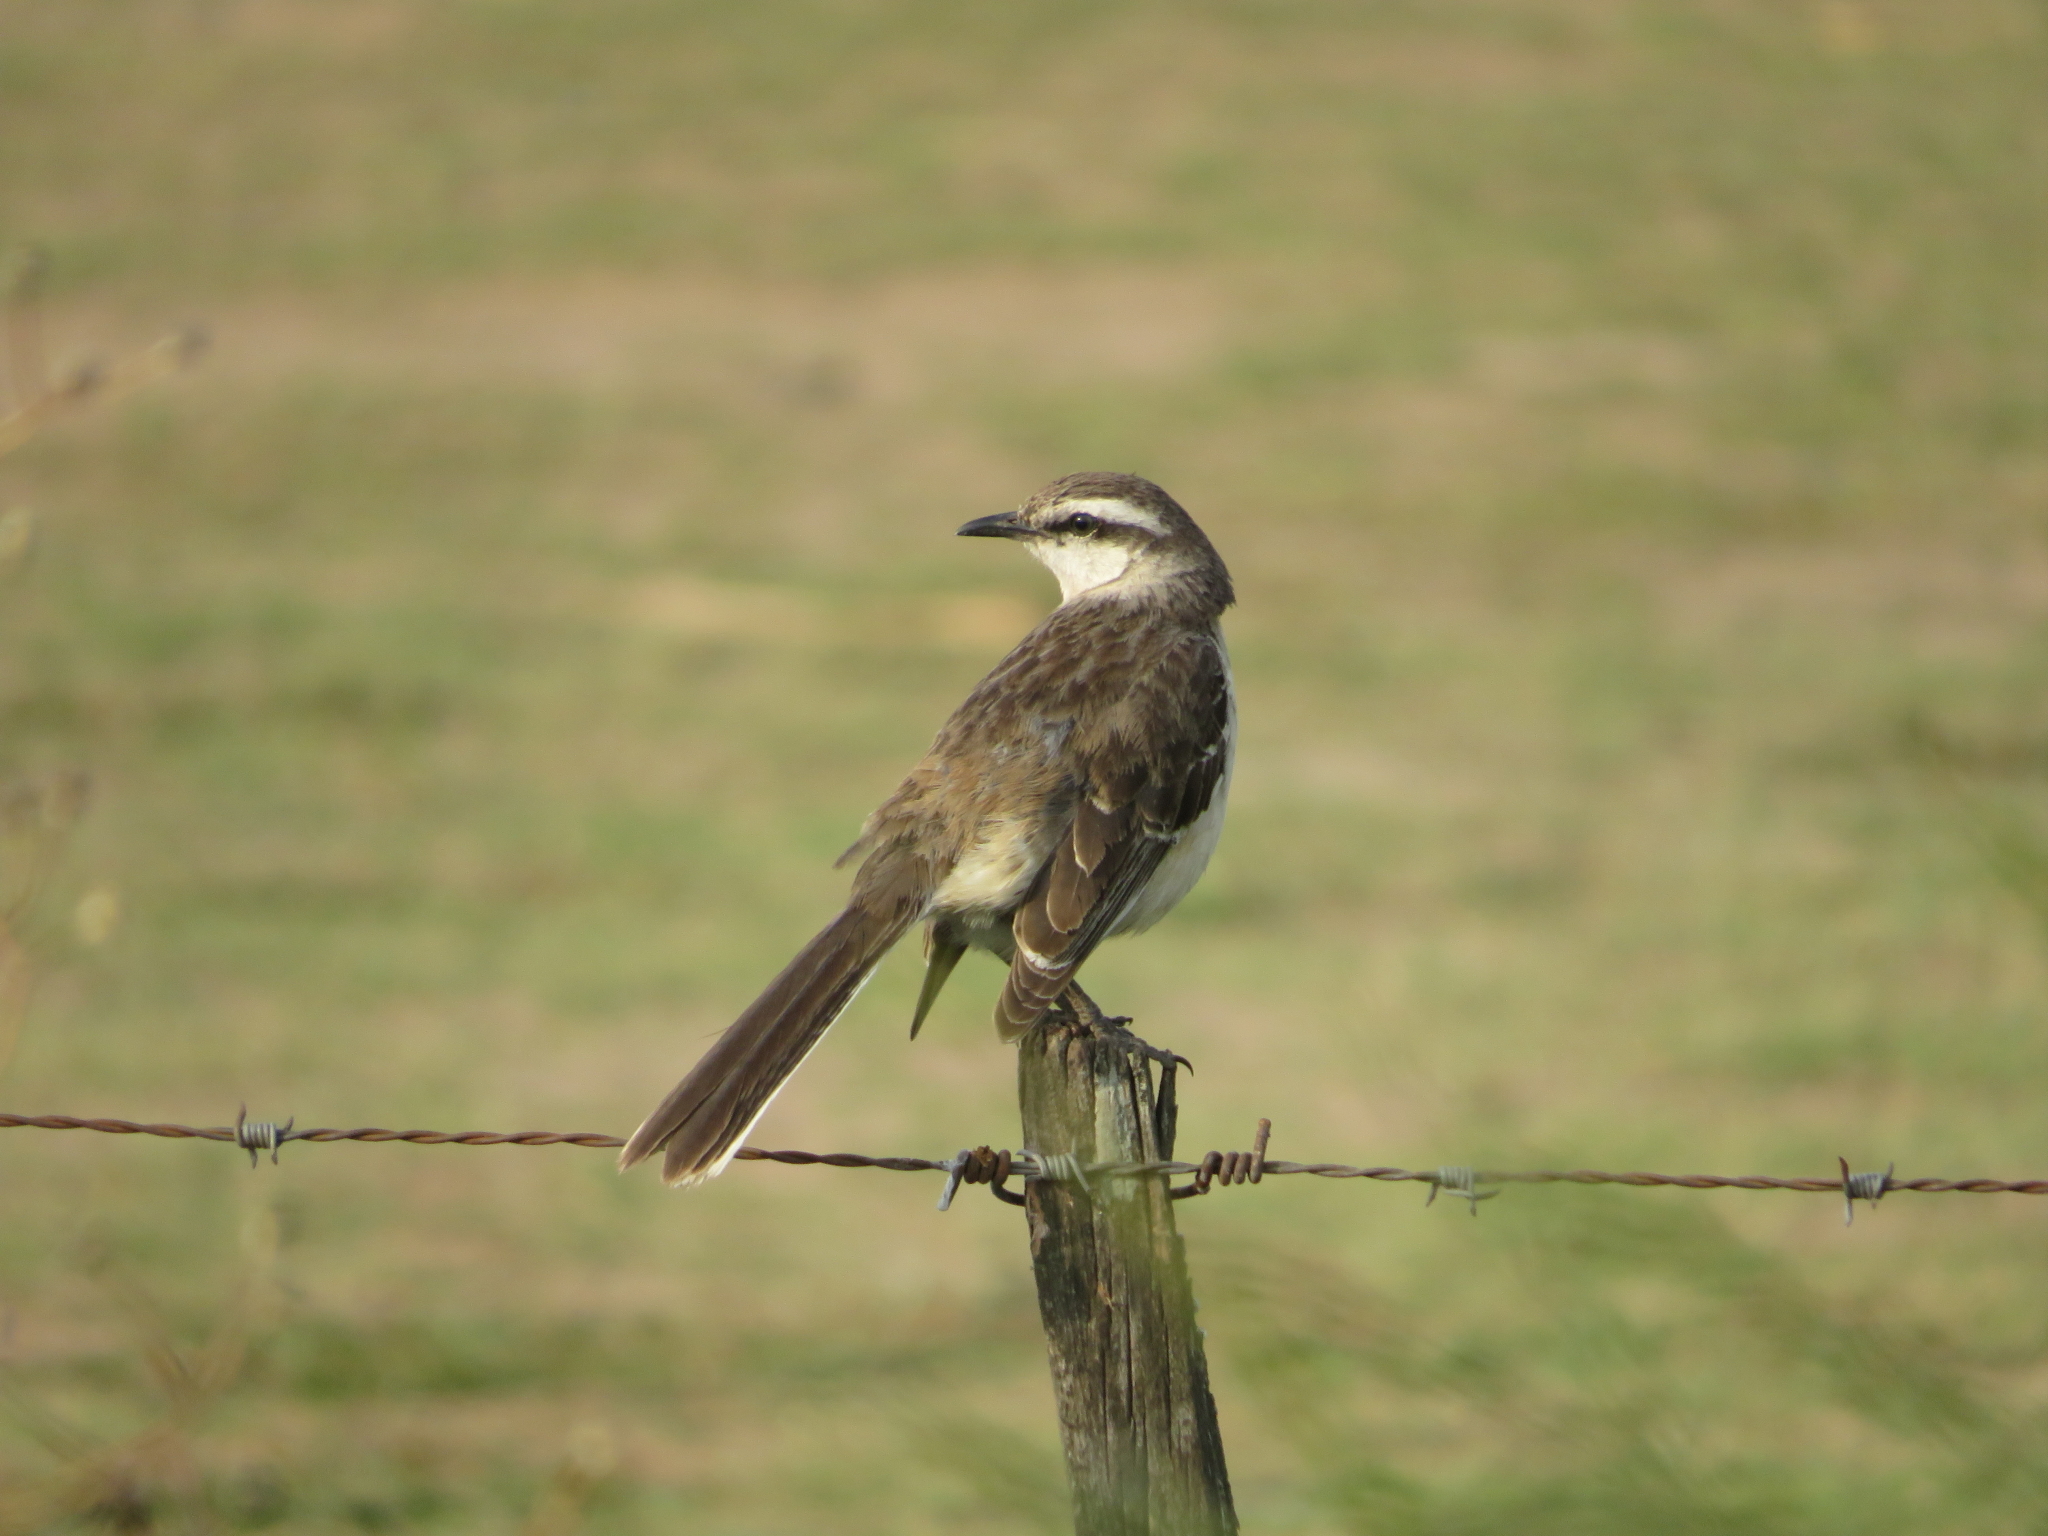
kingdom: Animalia
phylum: Chordata
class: Aves
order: Passeriformes
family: Mimidae
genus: Mimus
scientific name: Mimus saturninus
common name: Chalk-browed mockingbird
